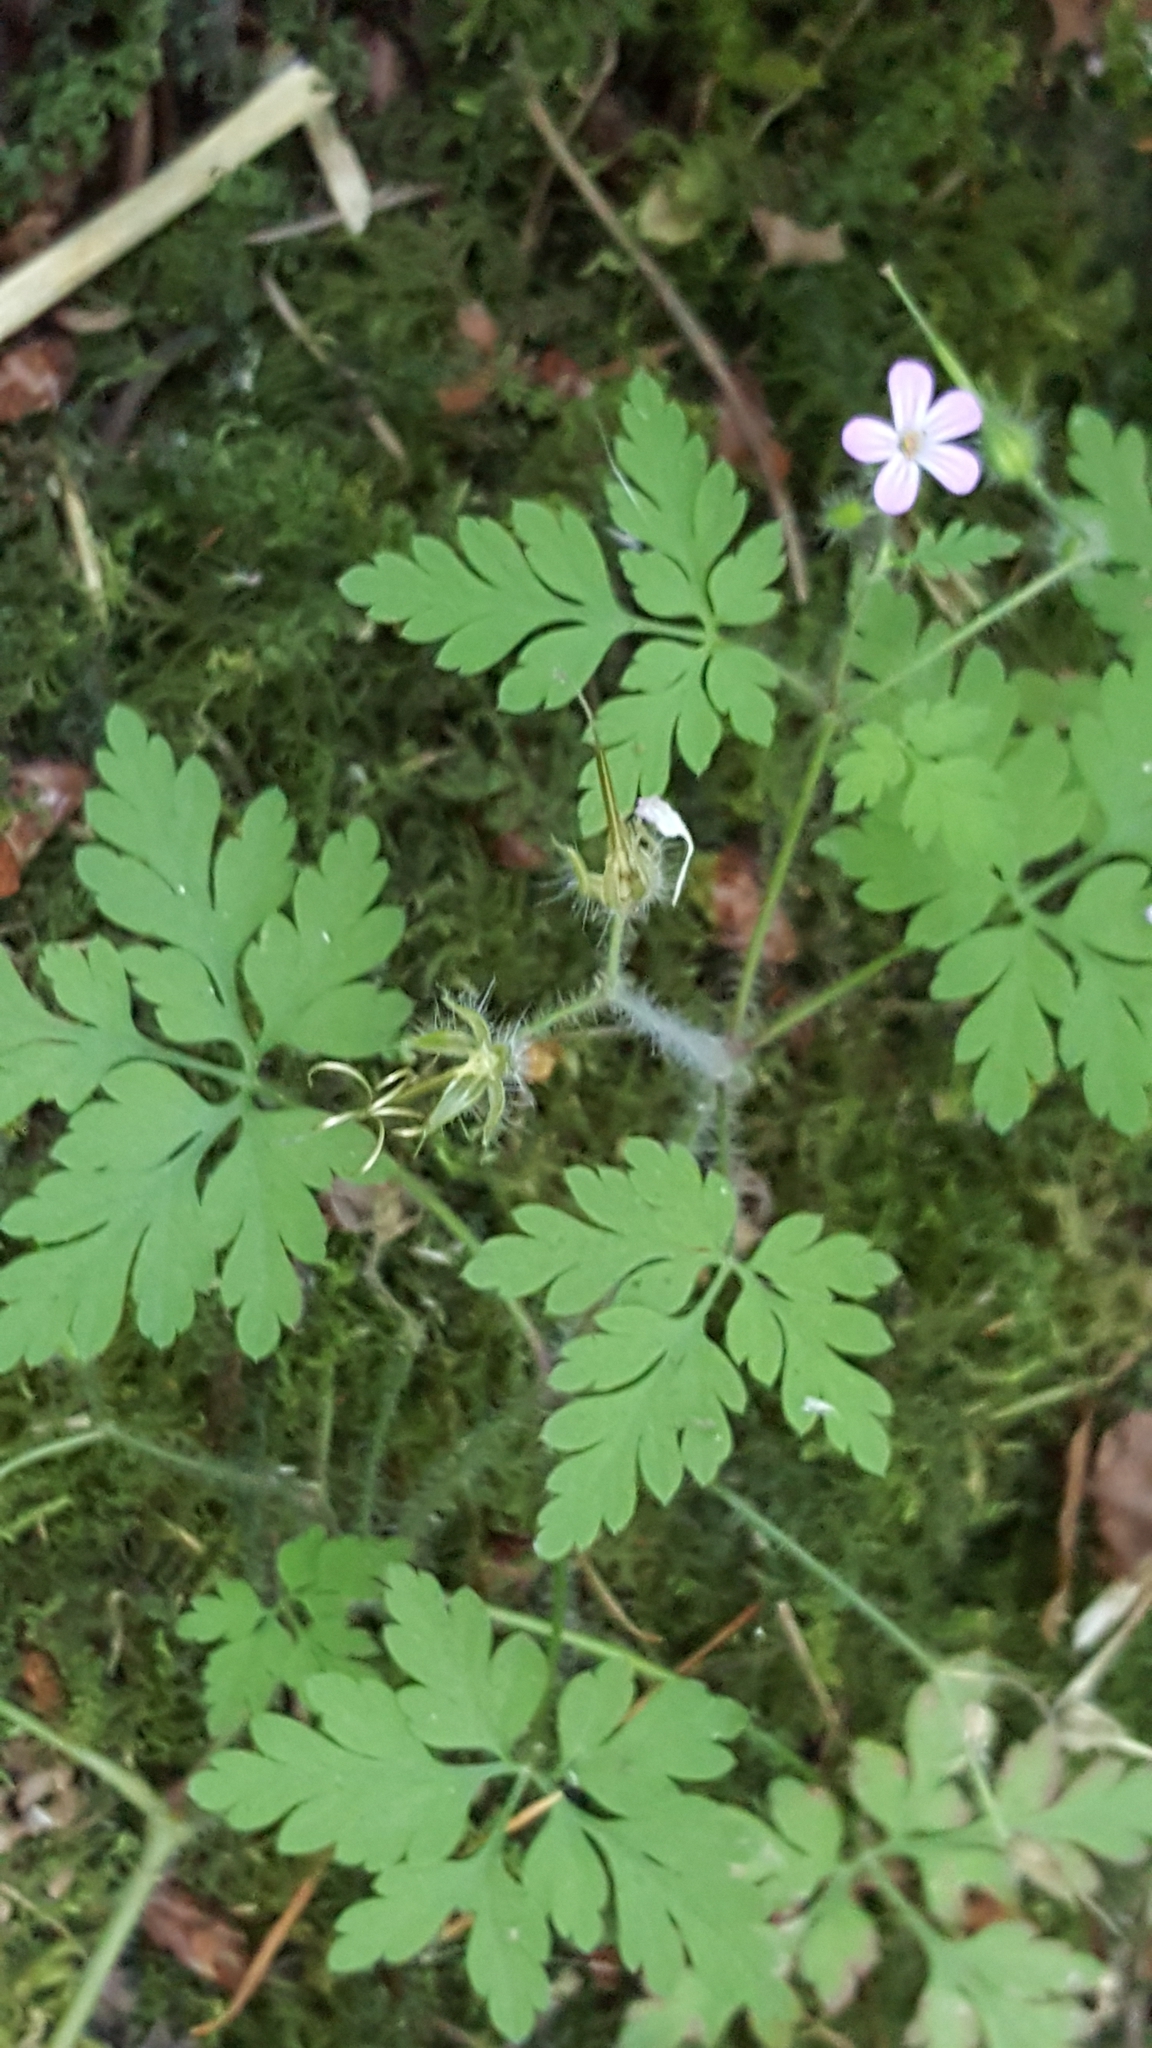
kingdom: Plantae
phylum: Tracheophyta
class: Magnoliopsida
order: Geraniales
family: Geraniaceae
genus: Geranium
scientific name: Geranium robertianum
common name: Herb-robert
